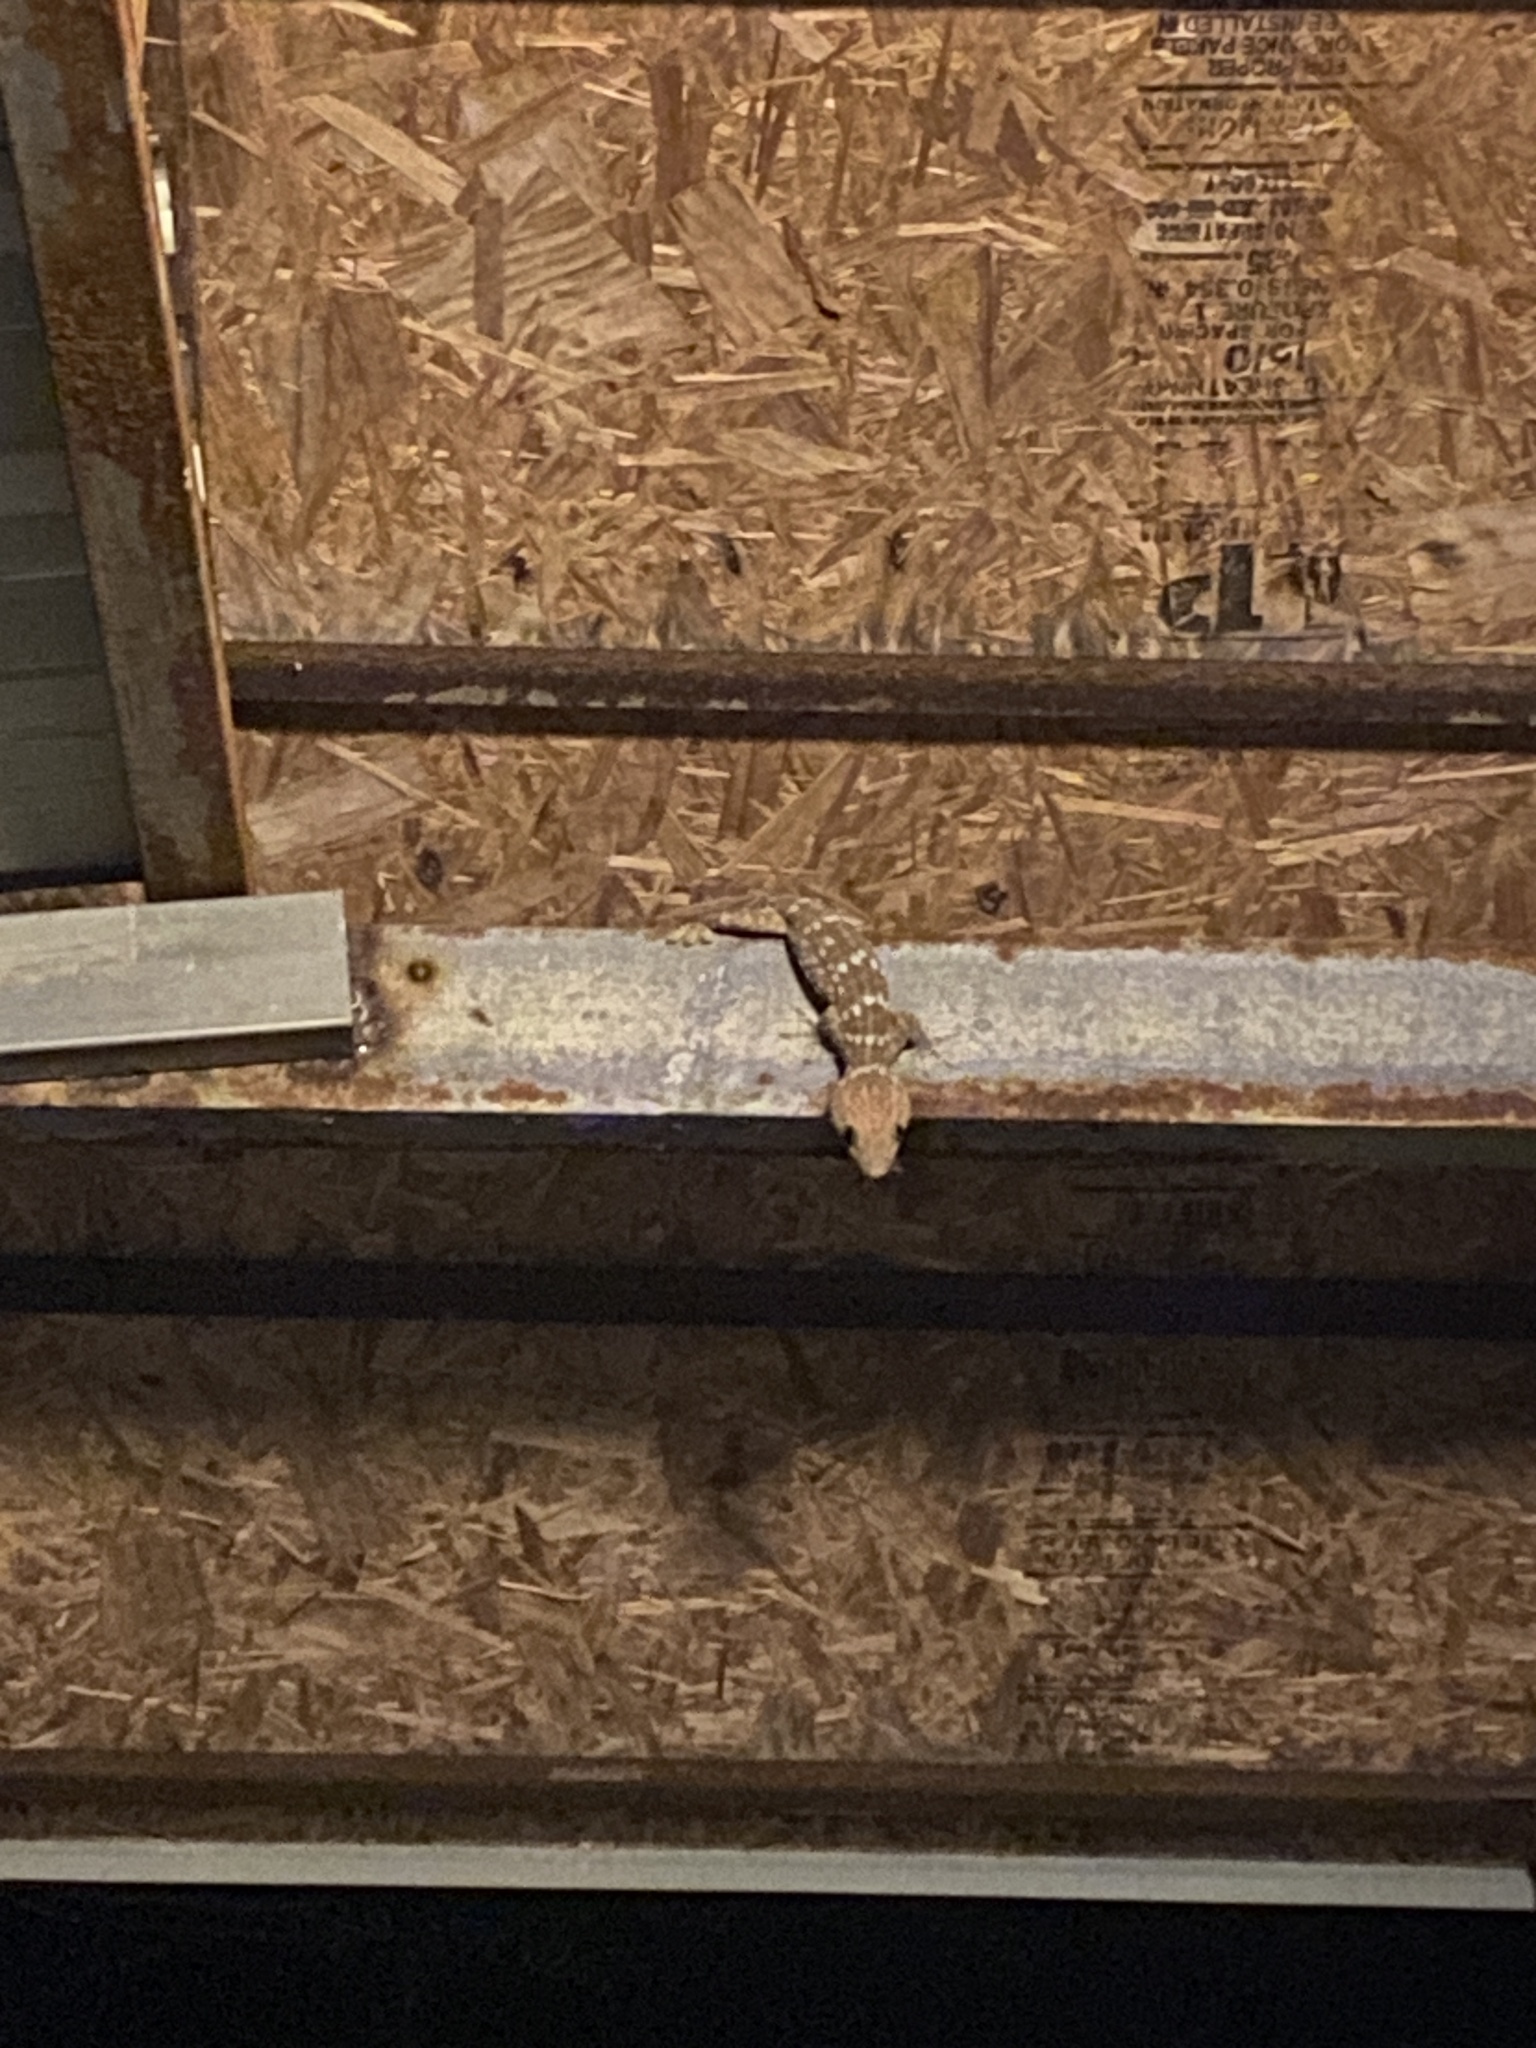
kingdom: Animalia
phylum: Chordata
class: Squamata
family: Gekkonidae
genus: Gekko
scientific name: Gekko gecko
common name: Tokay gecko
